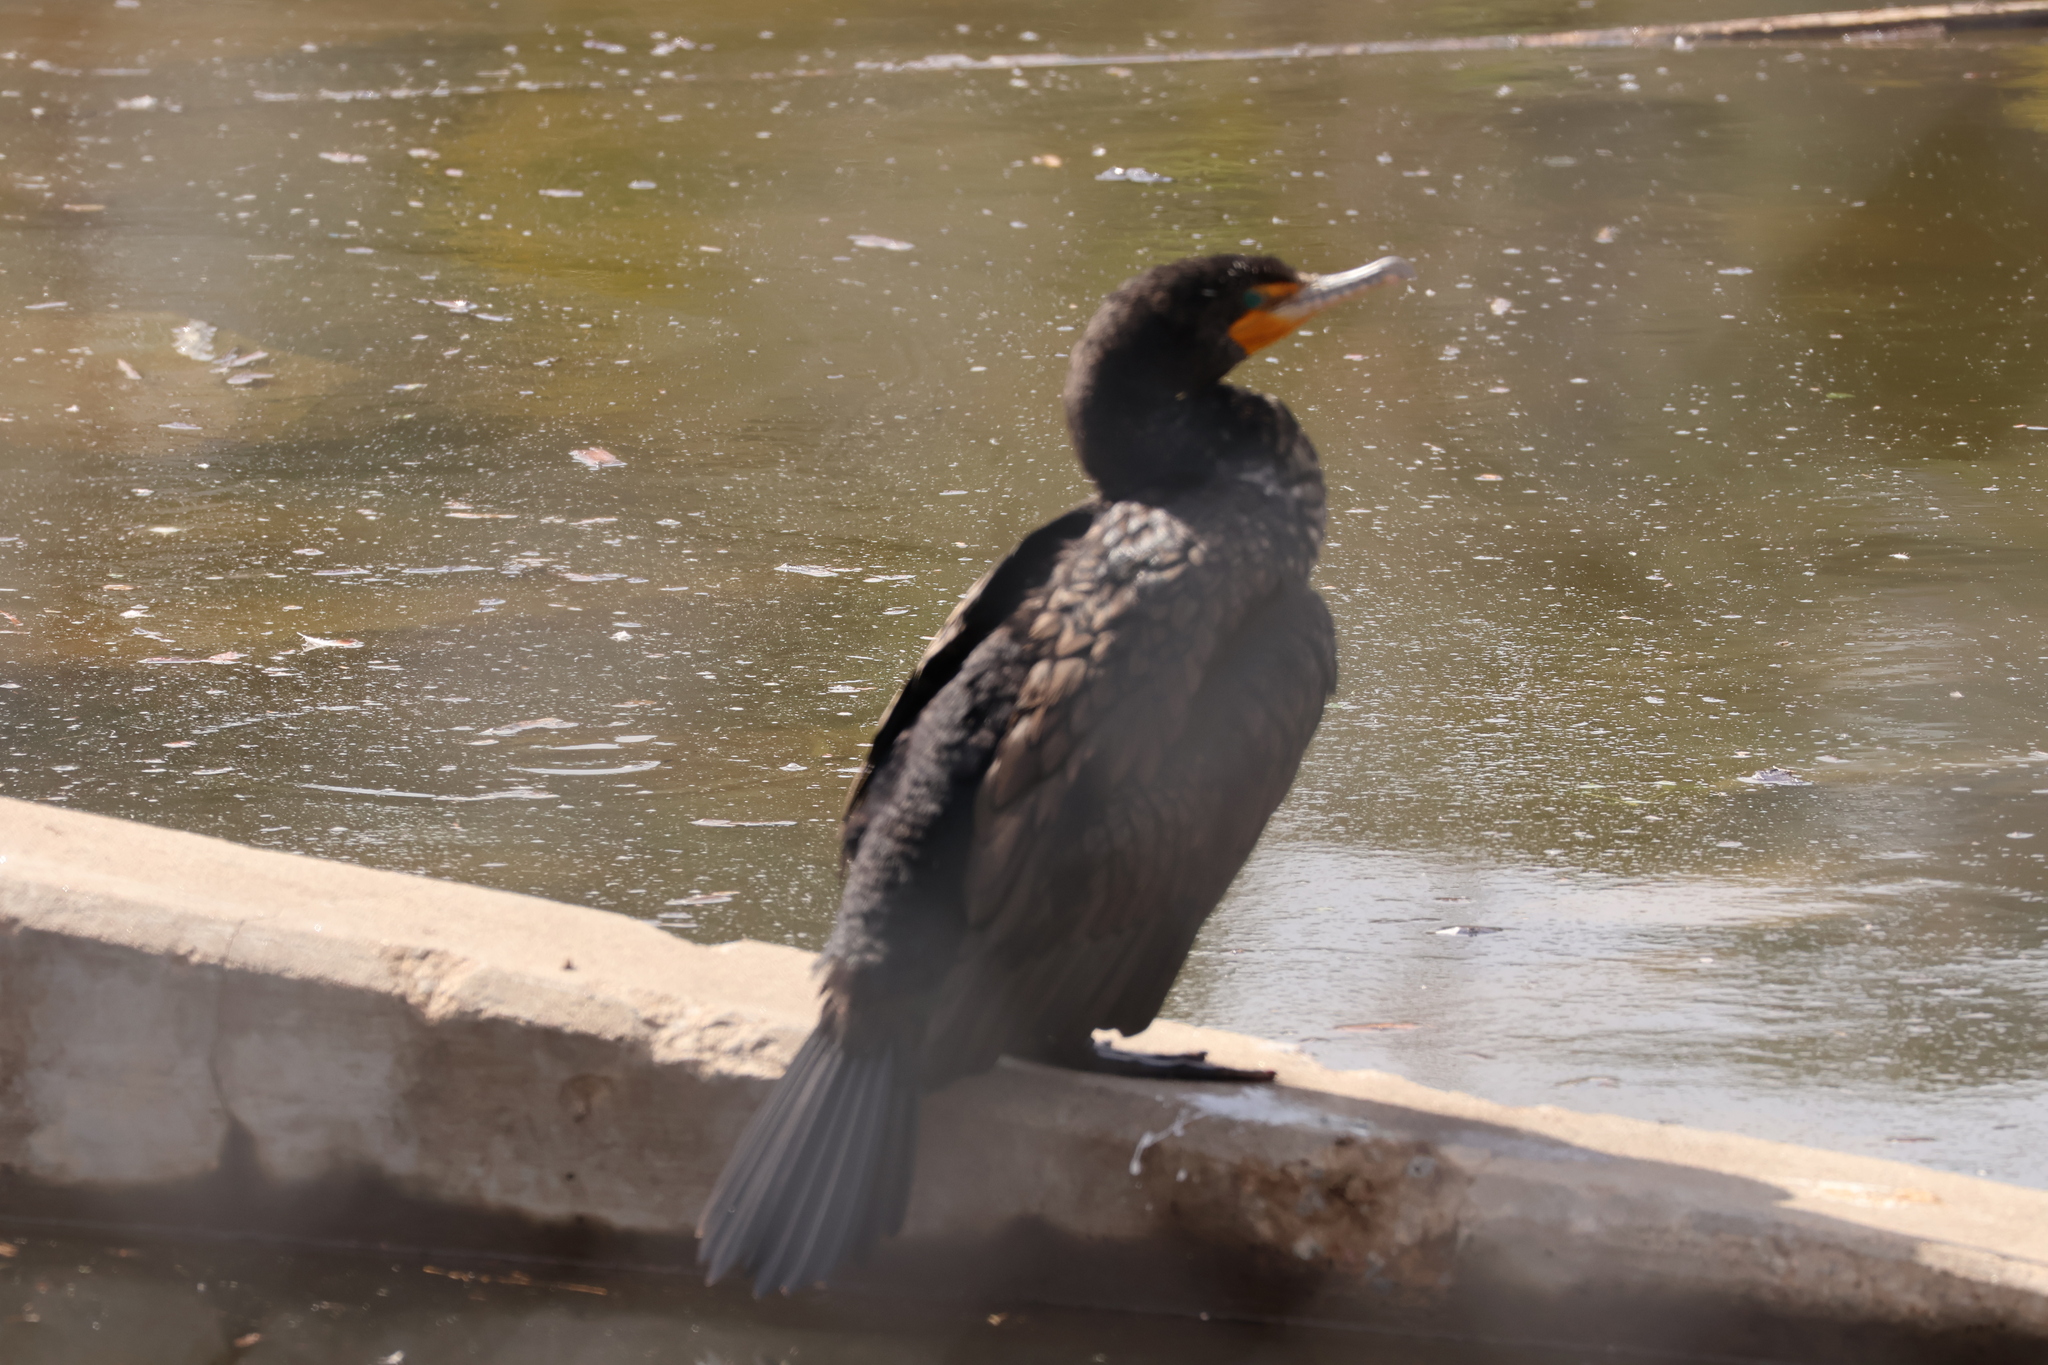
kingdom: Animalia
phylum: Chordata
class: Aves
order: Suliformes
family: Phalacrocoracidae
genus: Phalacrocorax
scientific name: Phalacrocorax auritus
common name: Double-crested cormorant
